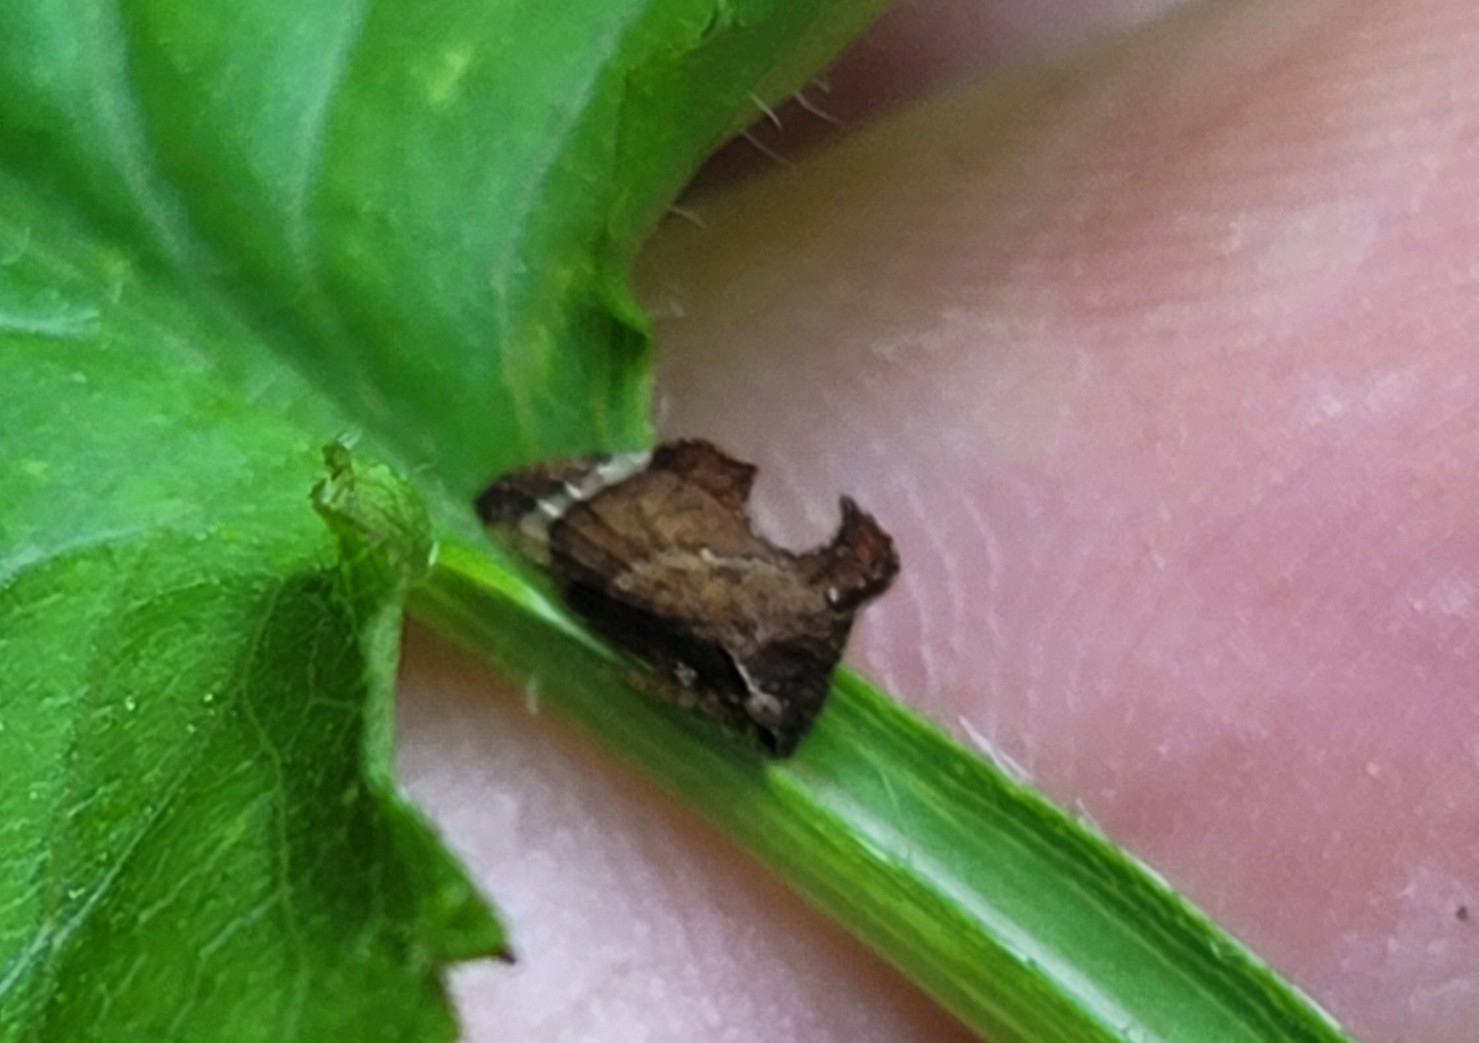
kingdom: Animalia
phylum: Arthropoda
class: Insecta
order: Hemiptera
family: Membracidae
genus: Entylia
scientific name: Entylia carinata
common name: Keeled treehopper
